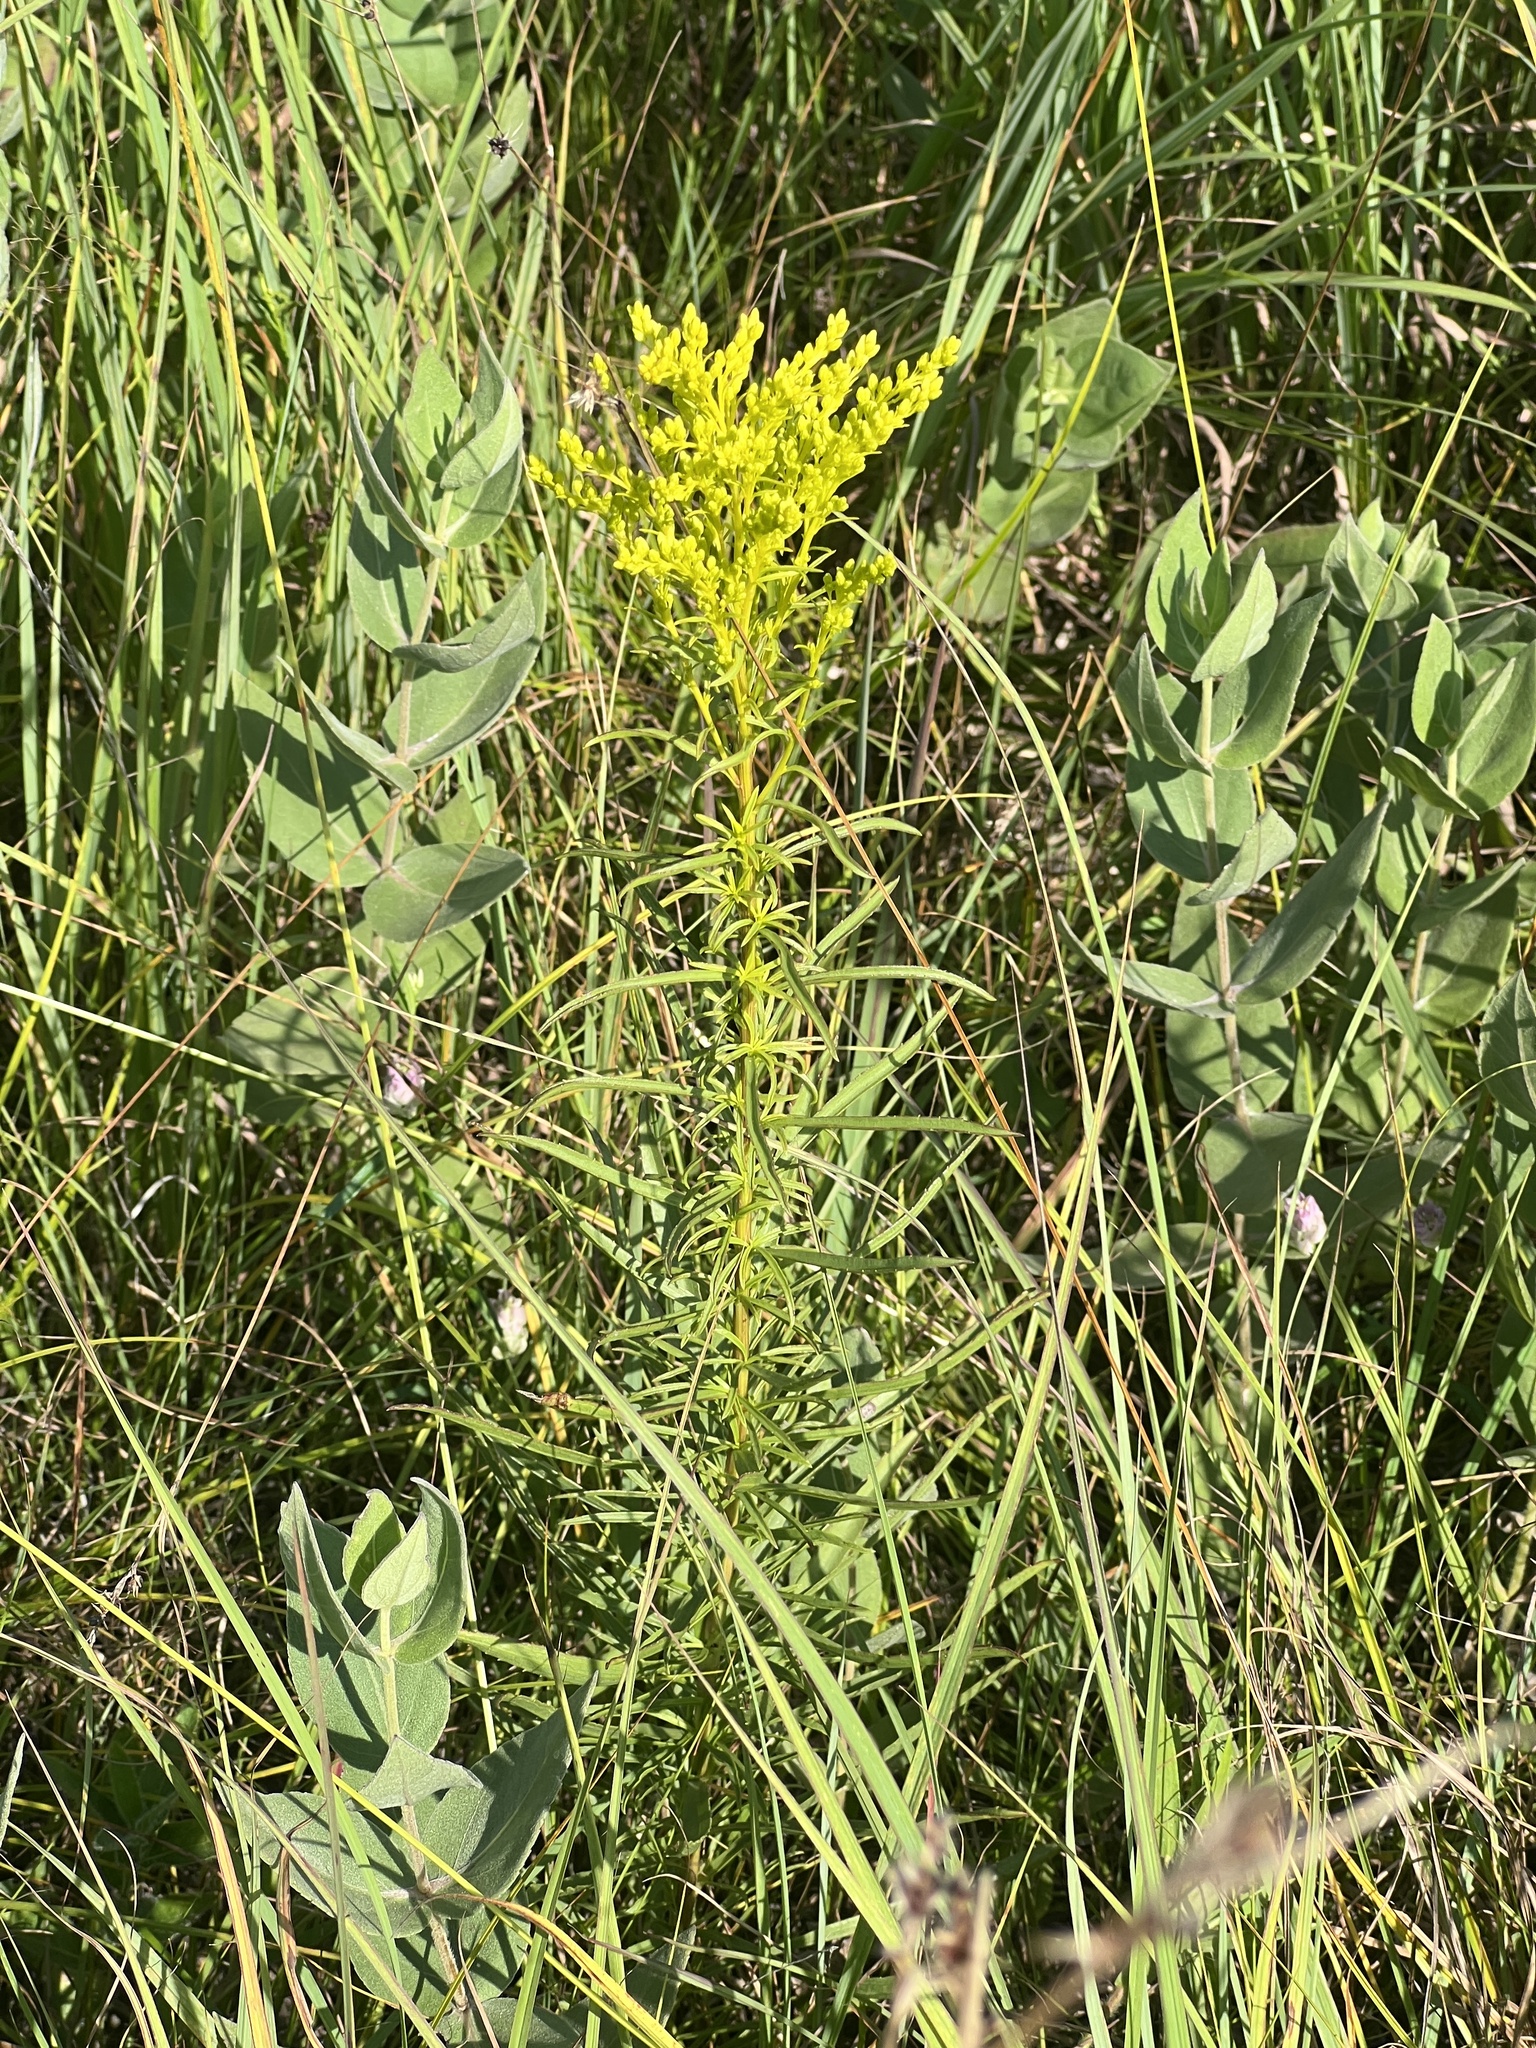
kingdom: Plantae
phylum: Tracheophyta
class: Magnoliopsida
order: Asterales
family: Asteraceae
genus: Solidago
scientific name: Solidago missouriensis
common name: Prairie goldenrod
